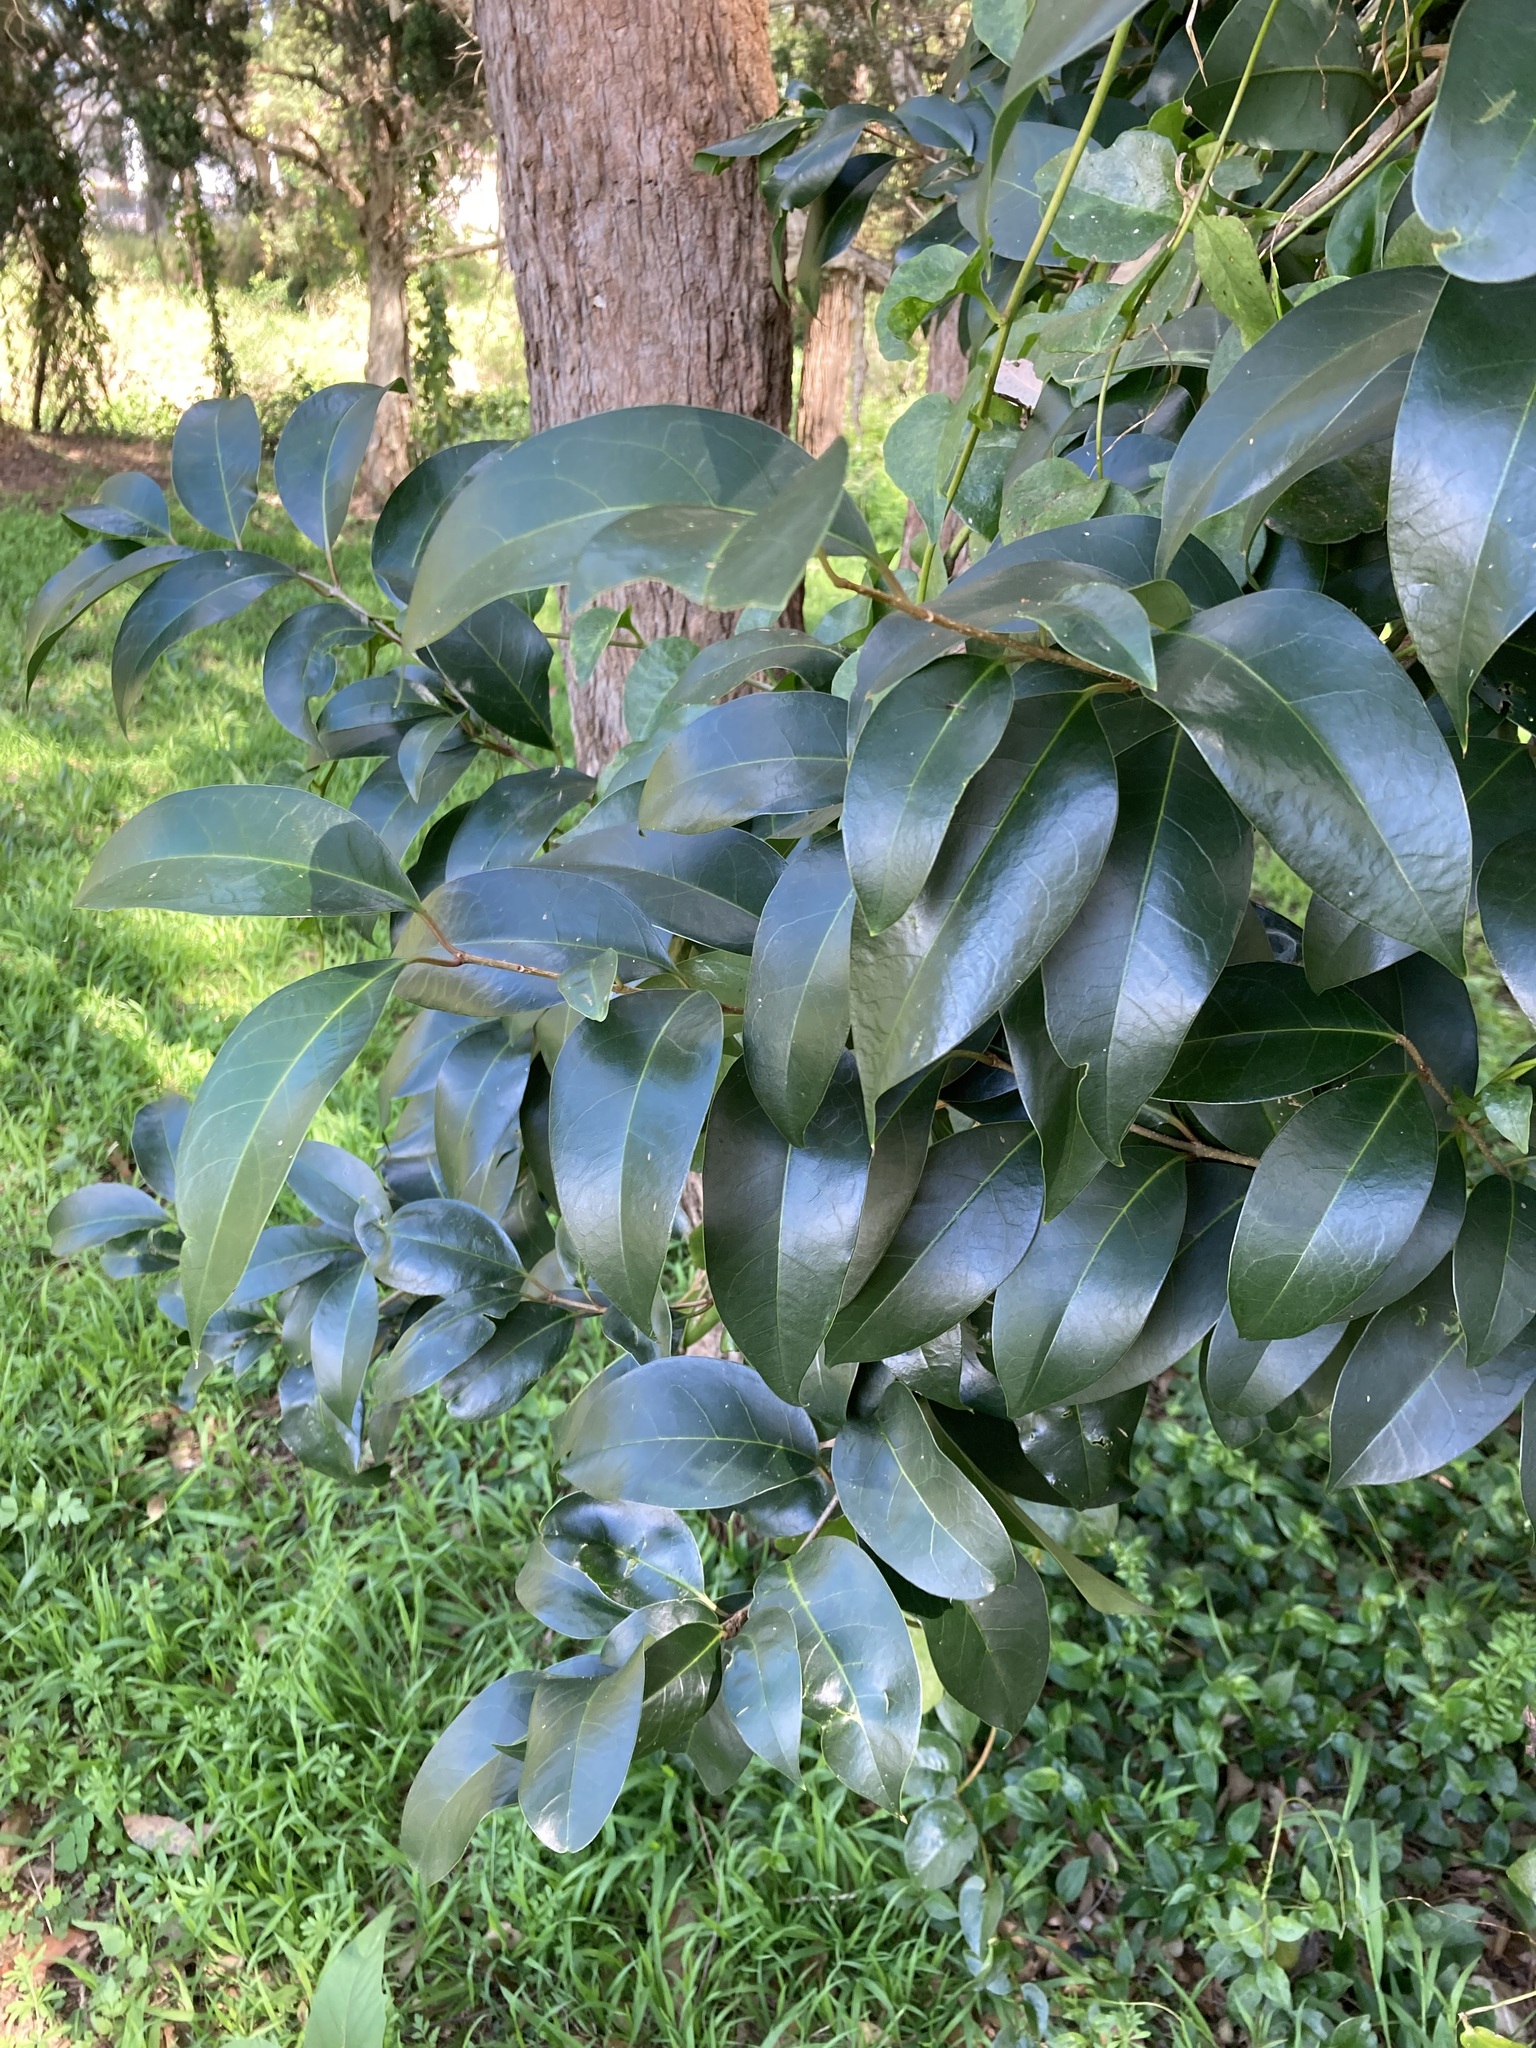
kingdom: Plantae
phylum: Tracheophyta
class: Magnoliopsida
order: Lamiales
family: Oleaceae
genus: Ligustrum
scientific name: Ligustrum lucidum
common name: Glossy privet
